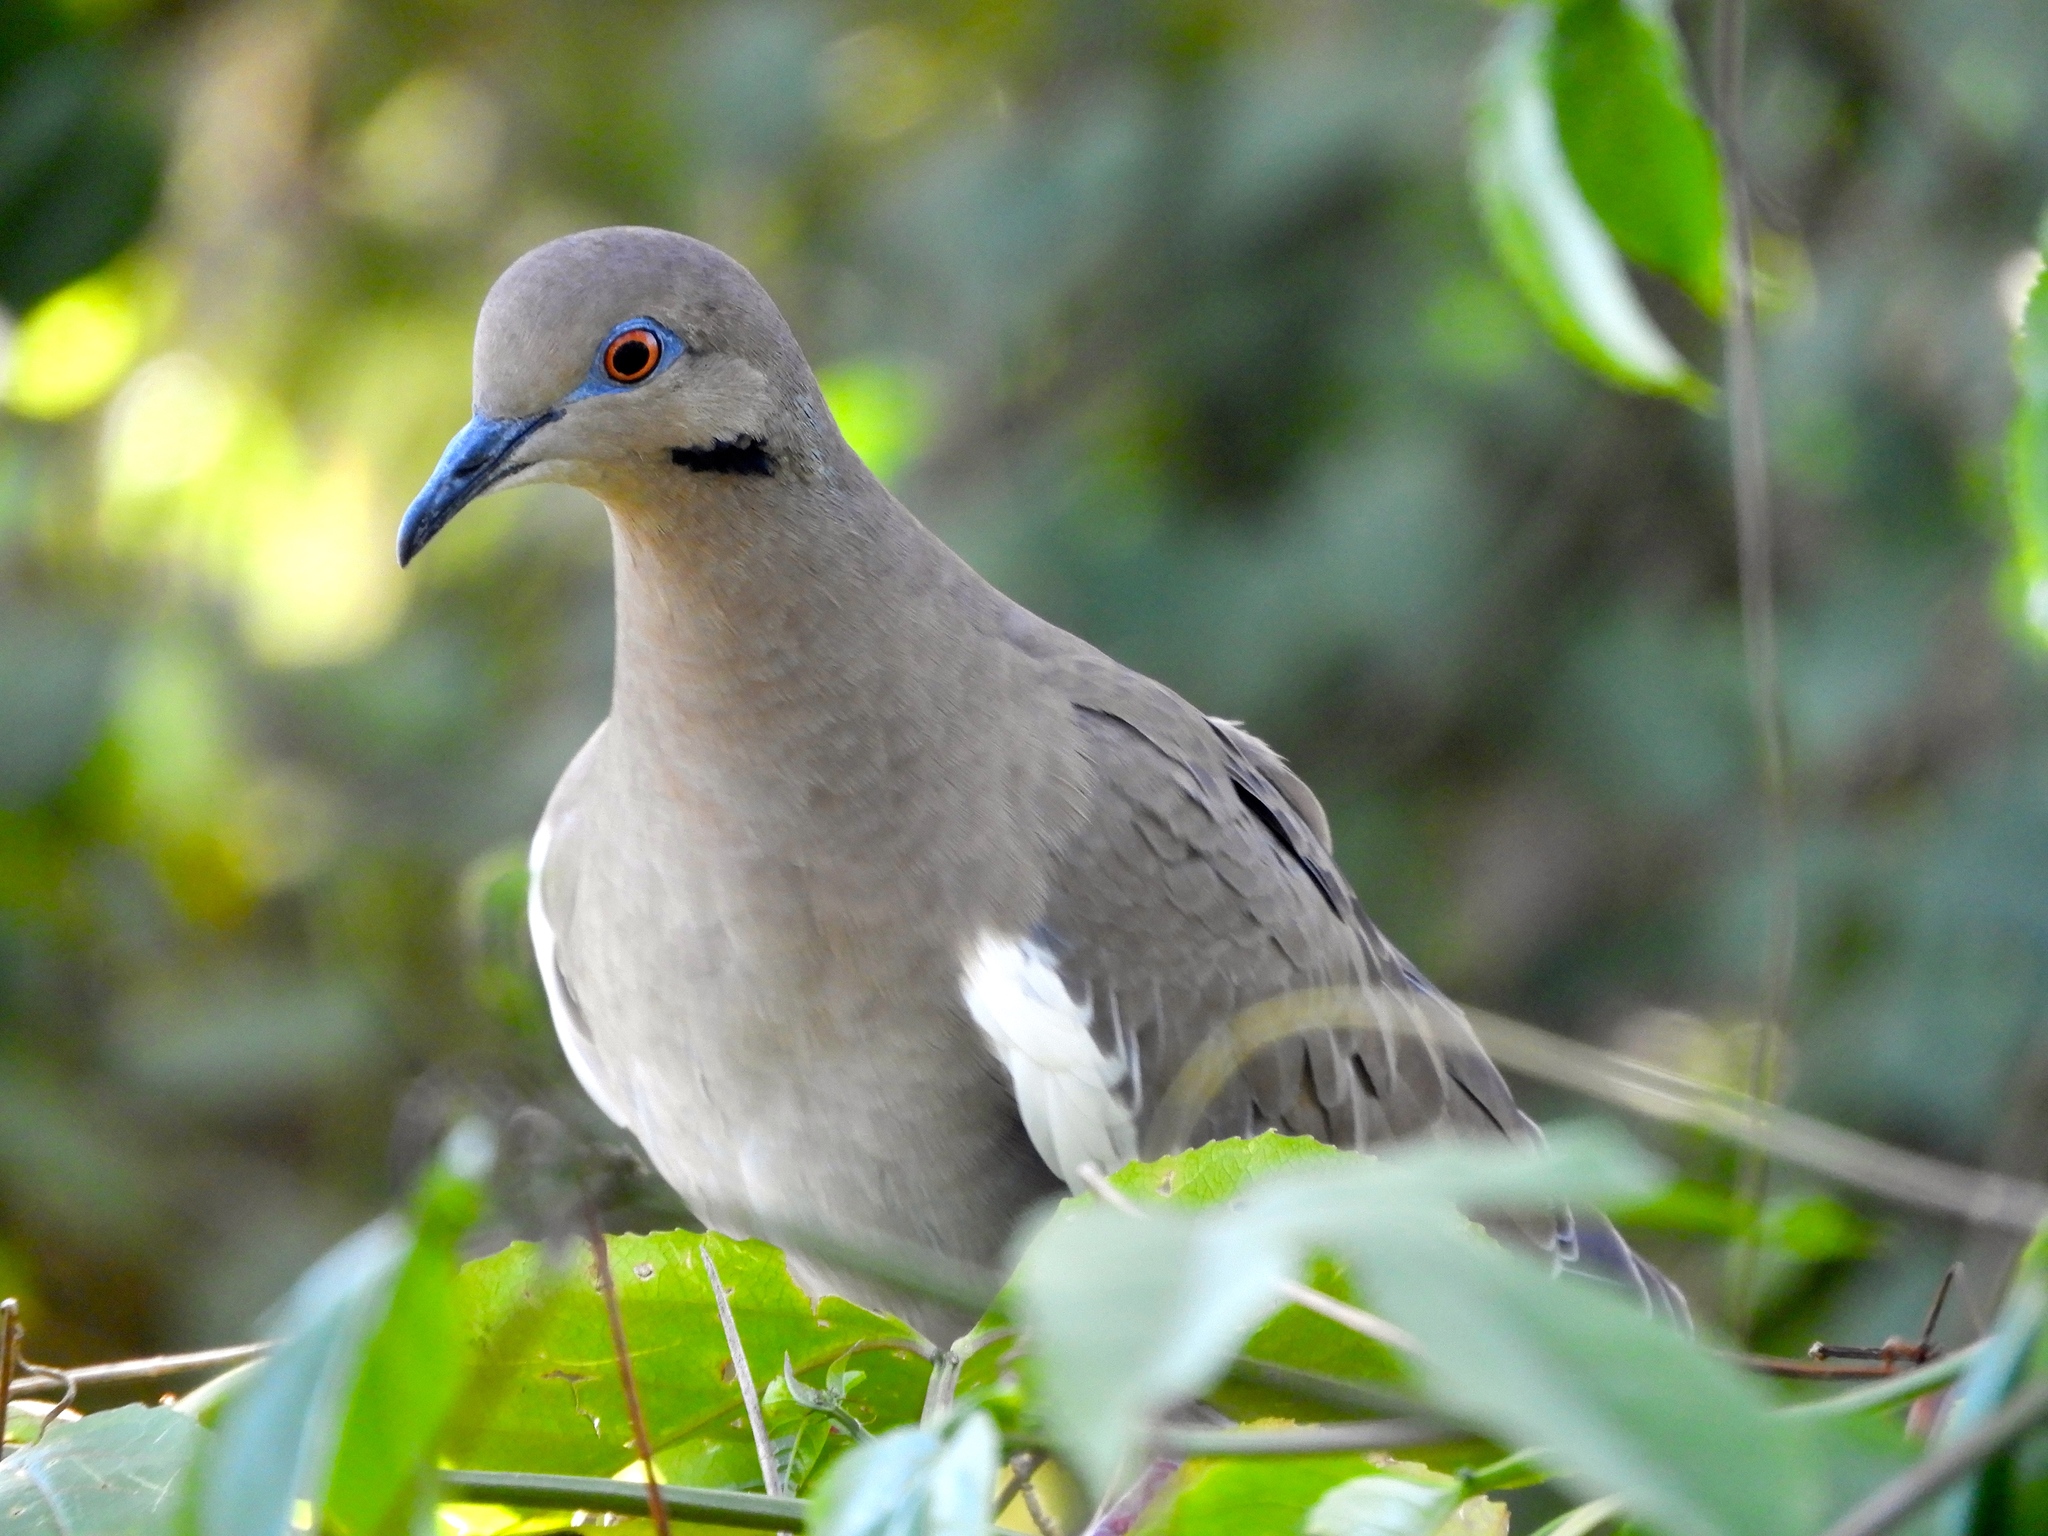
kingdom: Animalia
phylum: Chordata
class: Aves
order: Columbiformes
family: Columbidae
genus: Zenaida
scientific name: Zenaida asiatica
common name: White-winged dove
